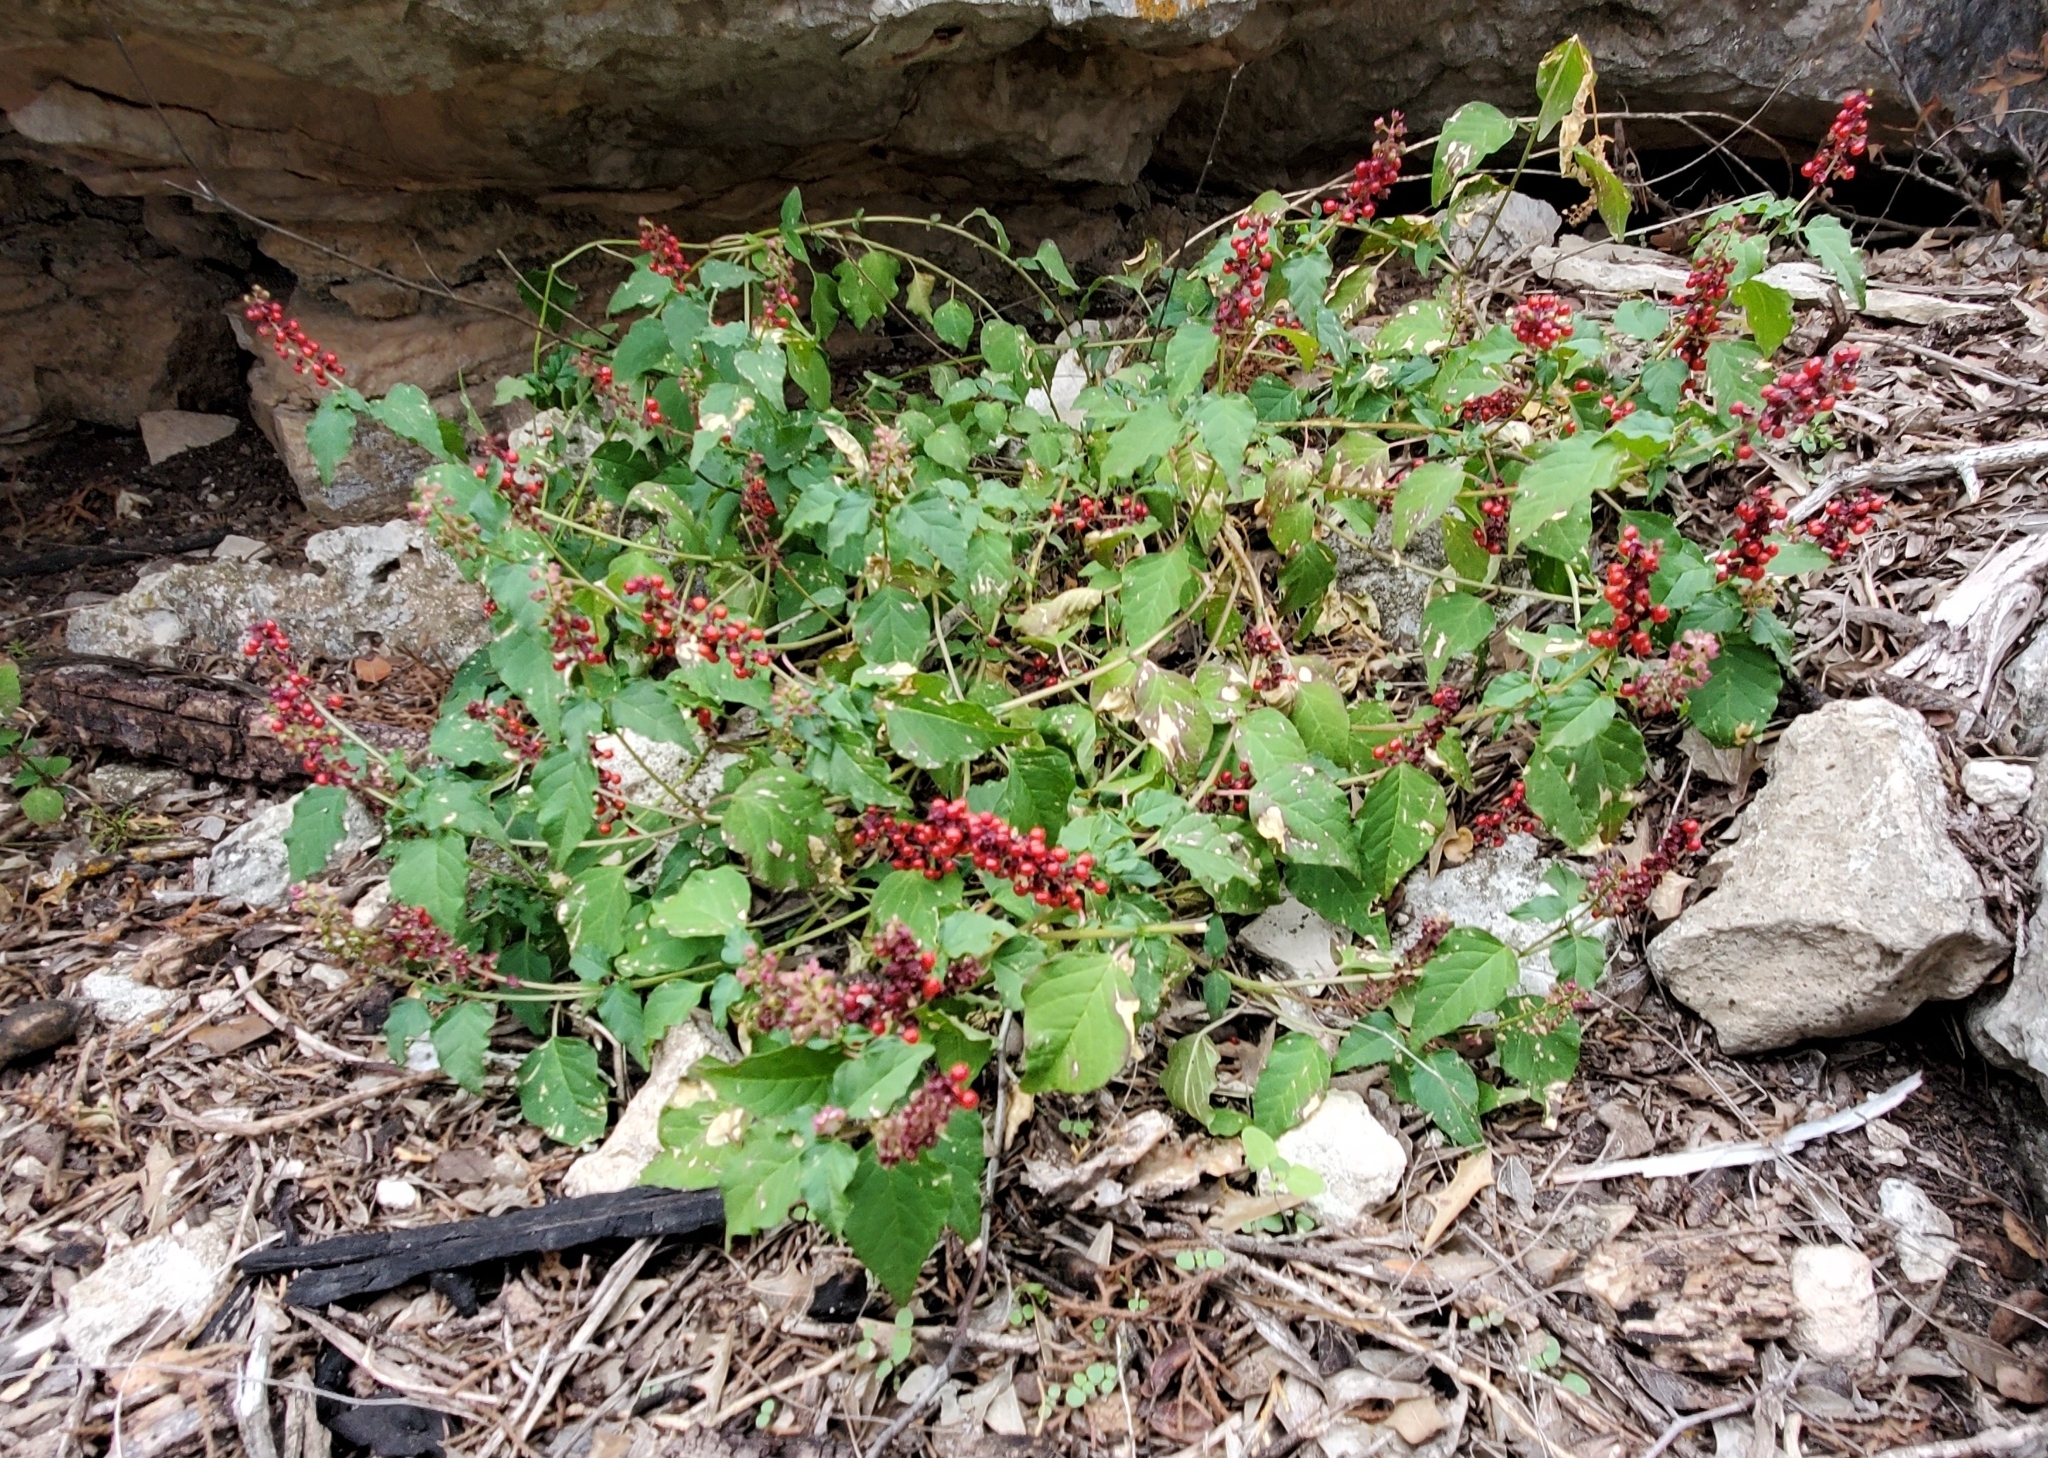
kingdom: Plantae
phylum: Tracheophyta
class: Magnoliopsida
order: Caryophyllales
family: Phytolaccaceae
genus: Rivina
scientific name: Rivina humilis
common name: Rougeplant
